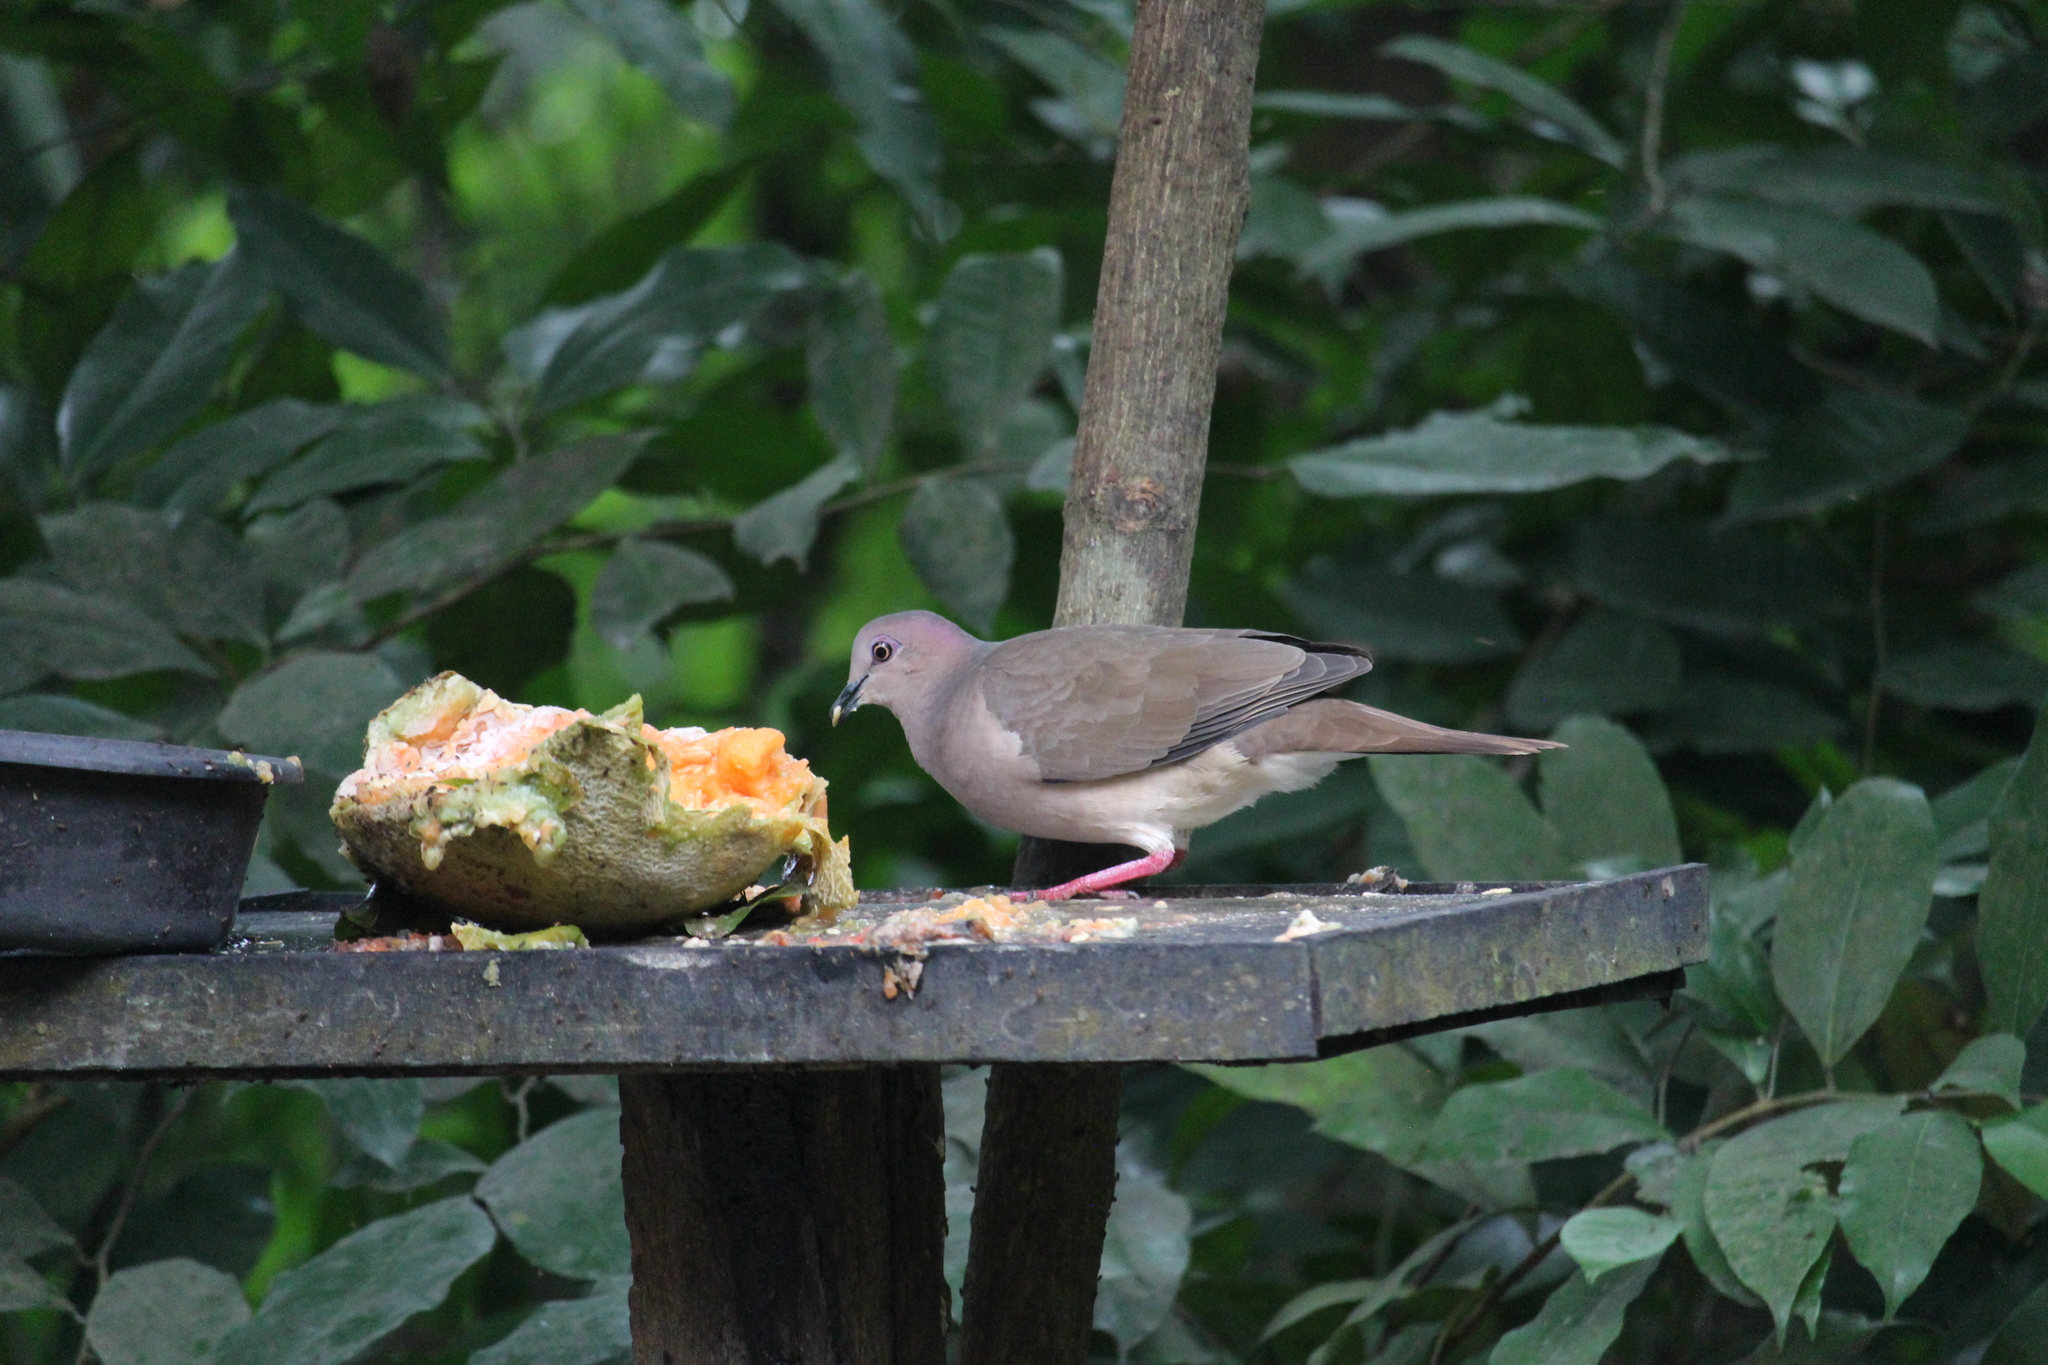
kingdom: Animalia
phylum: Chordata
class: Aves
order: Columbiformes
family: Columbidae
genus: Leptotila
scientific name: Leptotila verreauxi
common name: White-tipped dove
